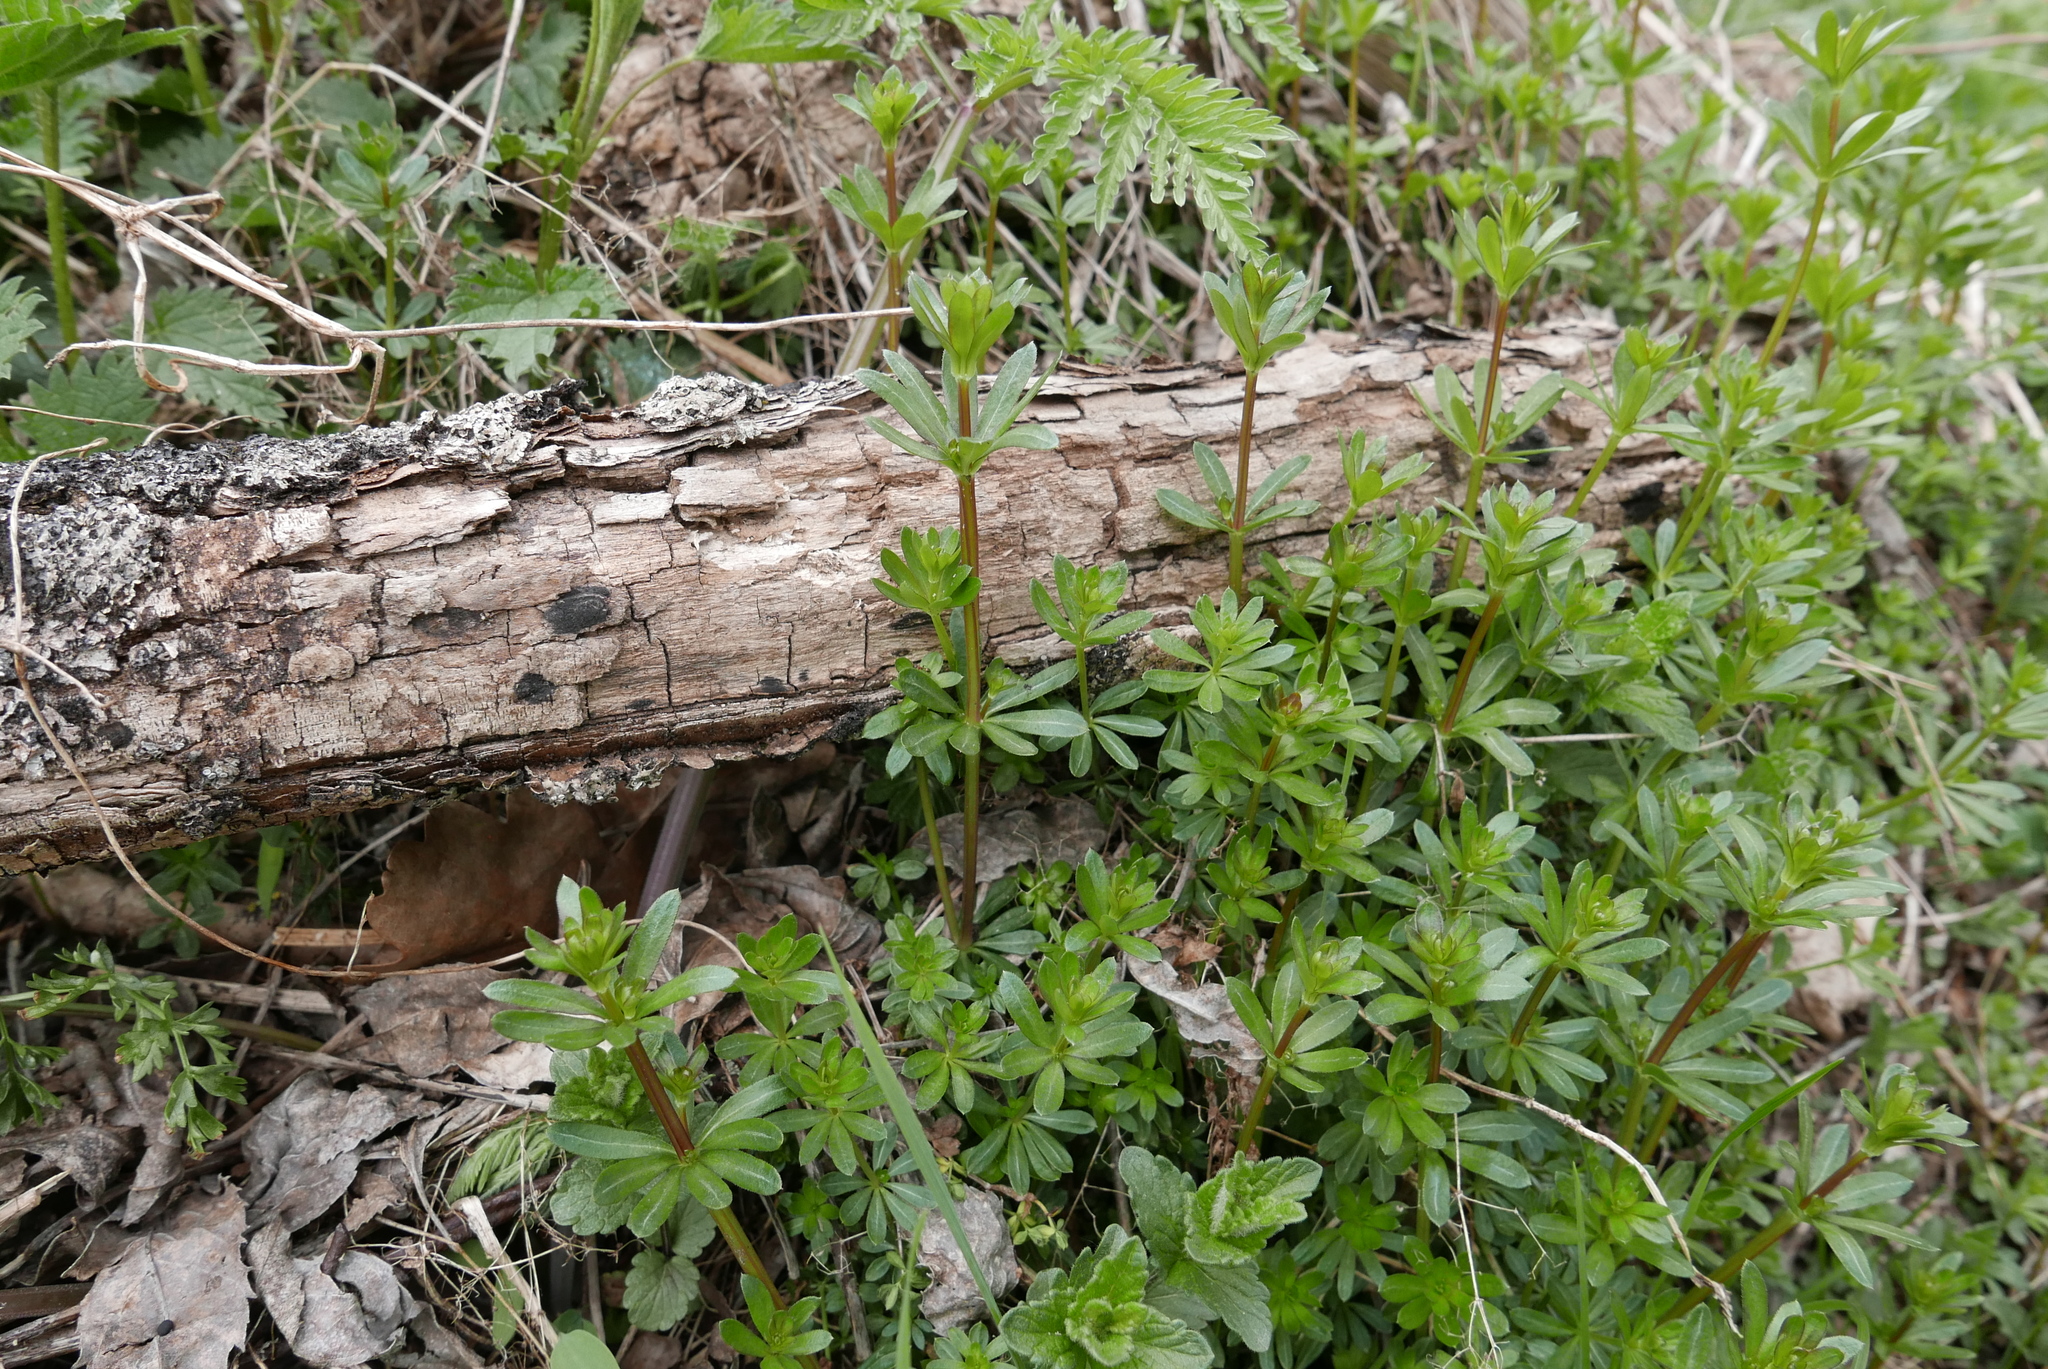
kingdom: Plantae
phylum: Tracheophyta
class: Magnoliopsida
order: Gentianales
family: Rubiaceae
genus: Galium
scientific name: Galium album
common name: White bedstraw
